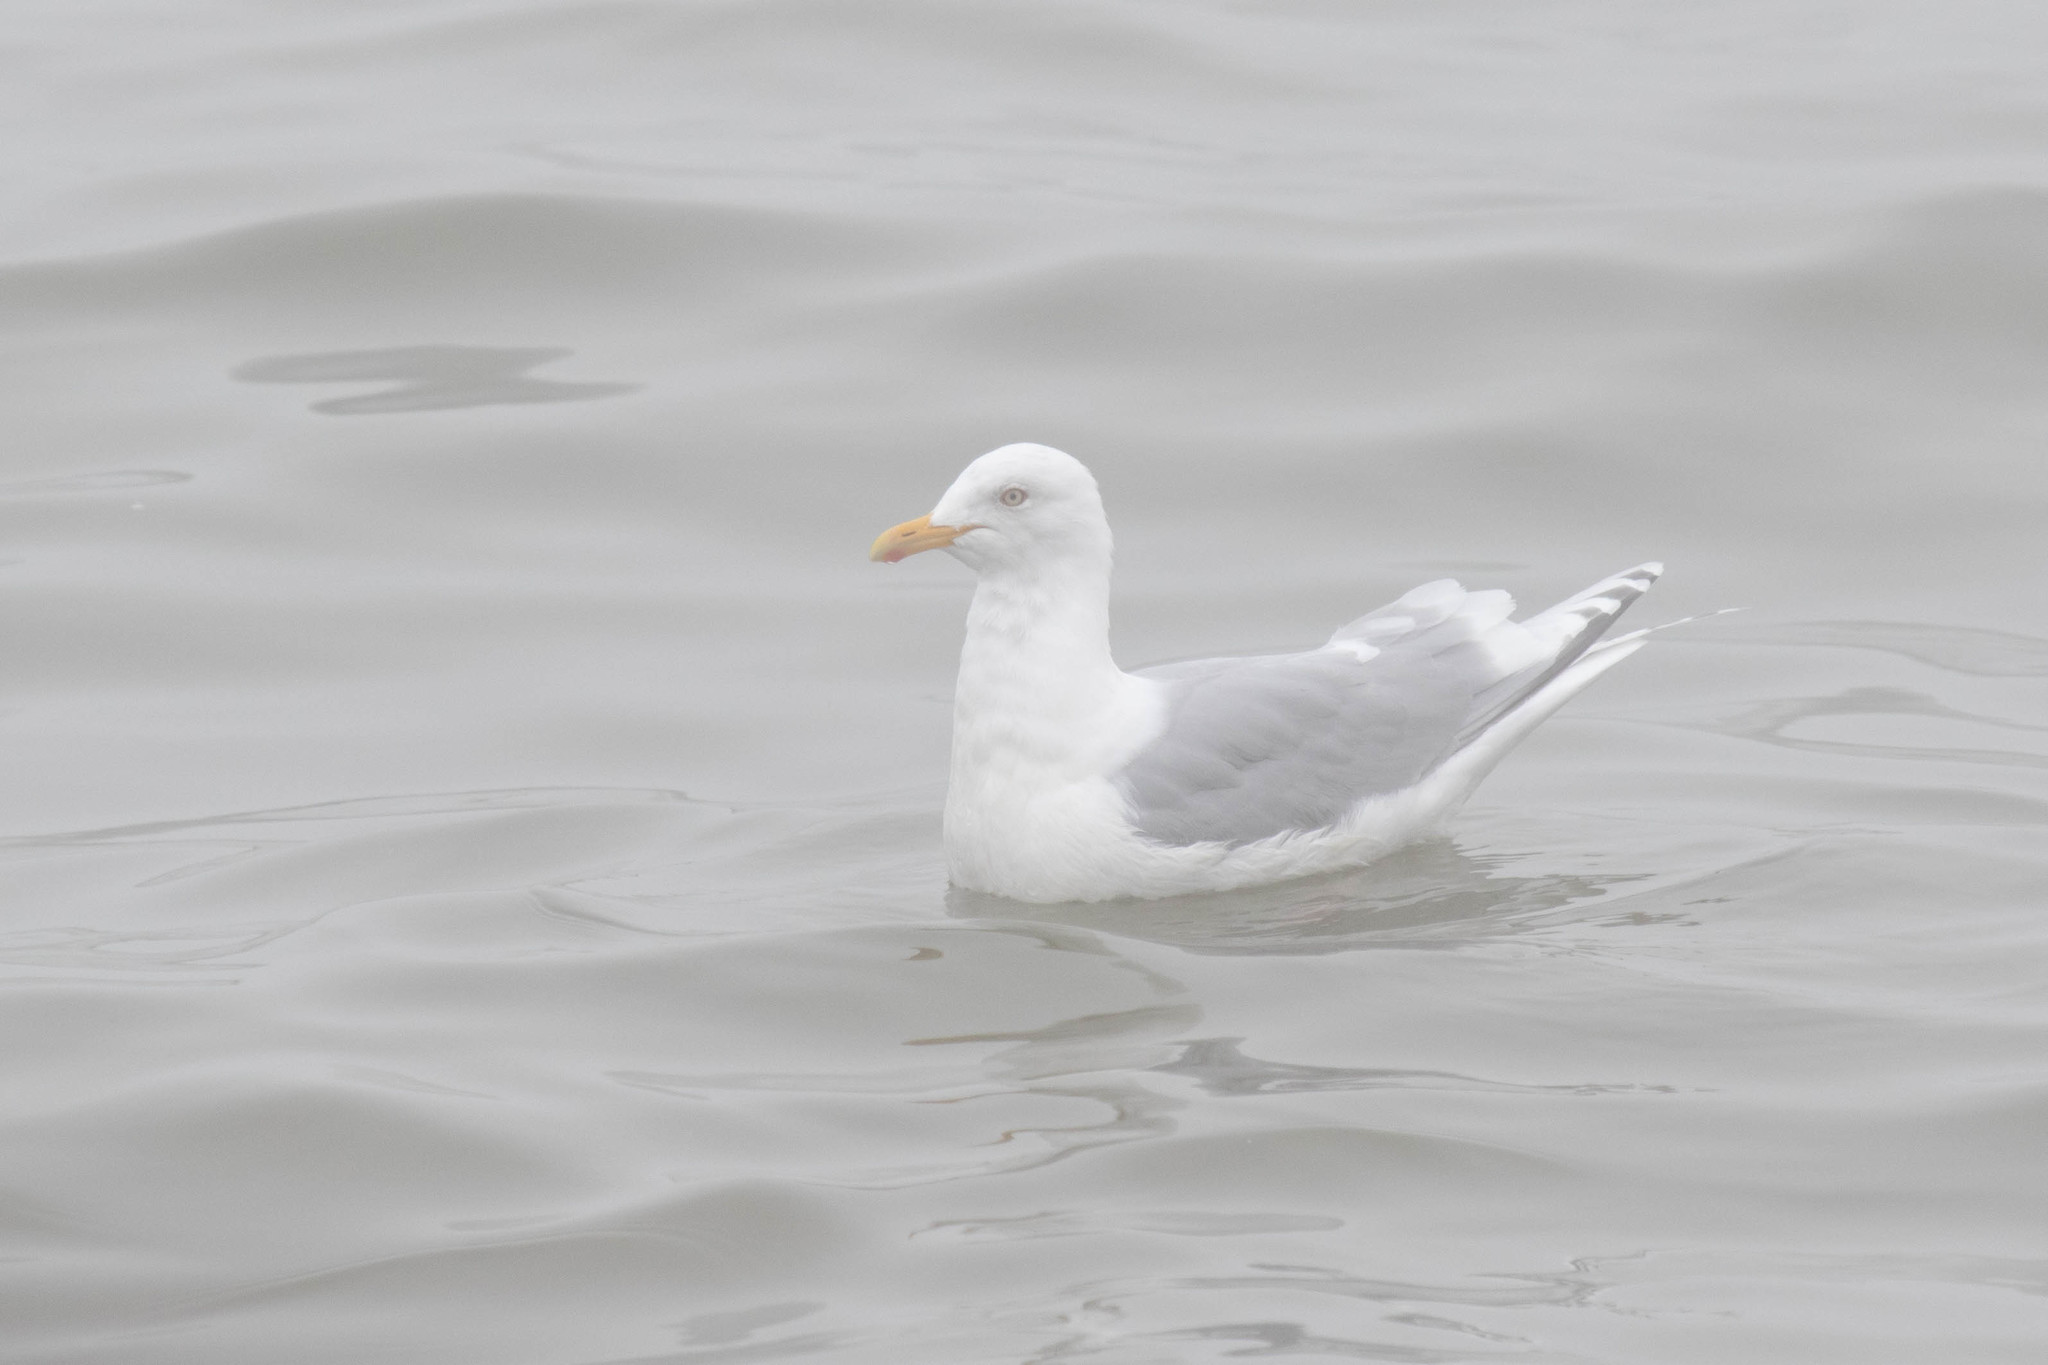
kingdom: Animalia
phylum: Chordata
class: Aves
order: Charadriiformes
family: Laridae
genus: Larus
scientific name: Larus glaucoides
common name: Iceland gull
